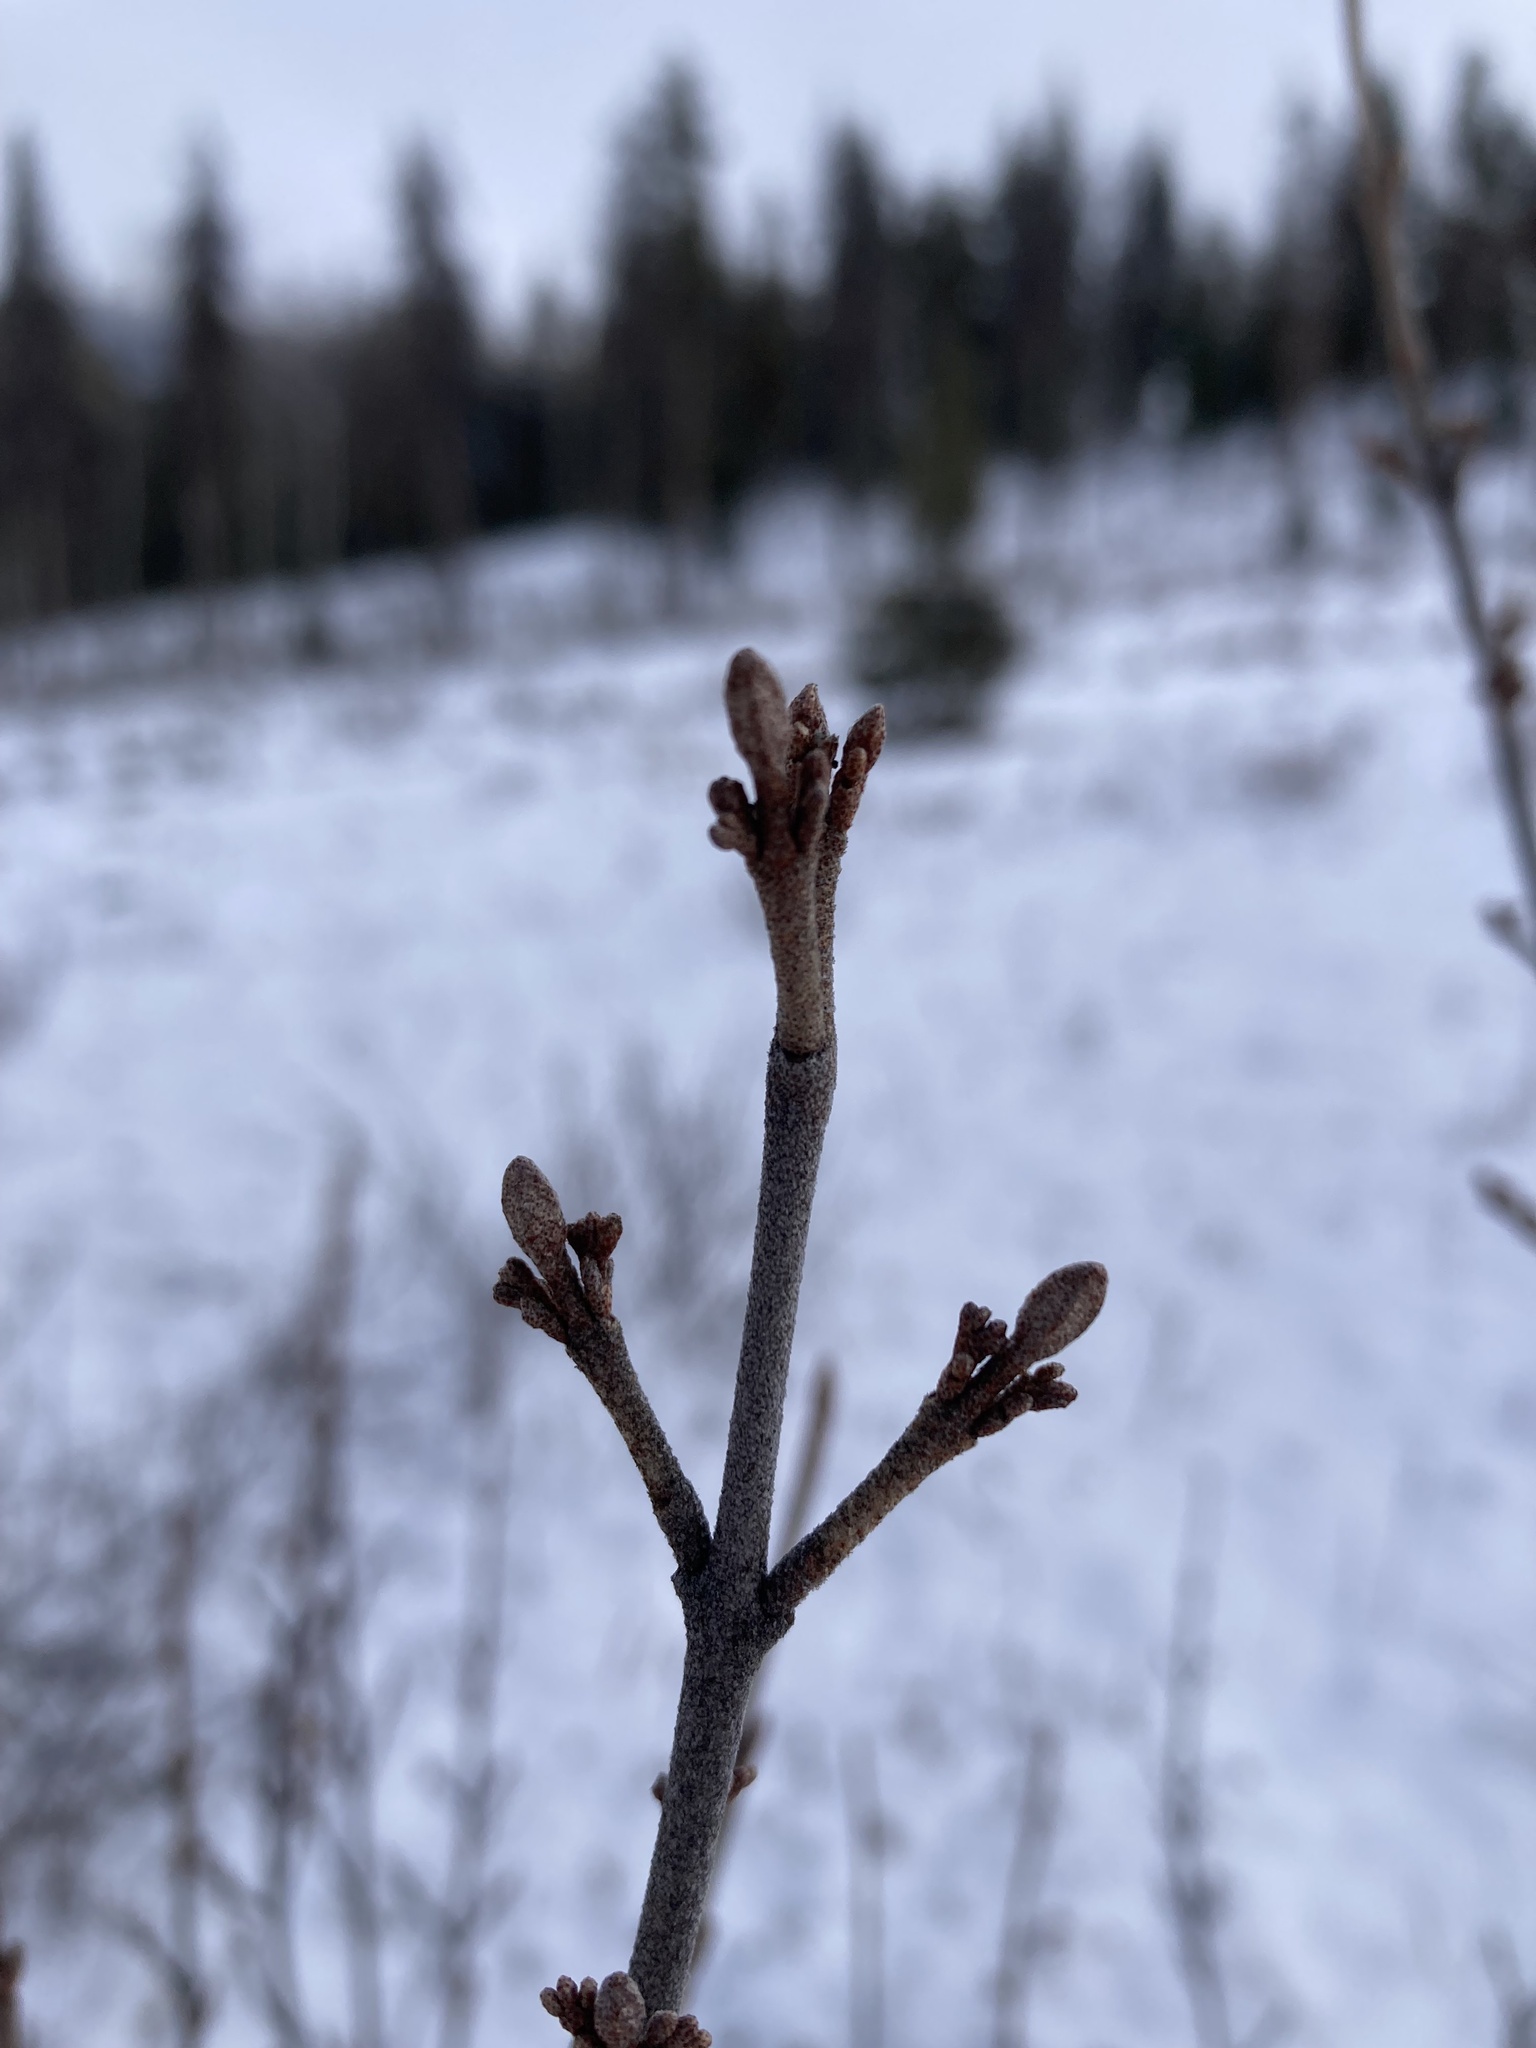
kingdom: Plantae
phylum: Tracheophyta
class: Magnoliopsida
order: Rosales
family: Elaeagnaceae
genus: Shepherdia
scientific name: Shepherdia canadensis
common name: Soapberry
